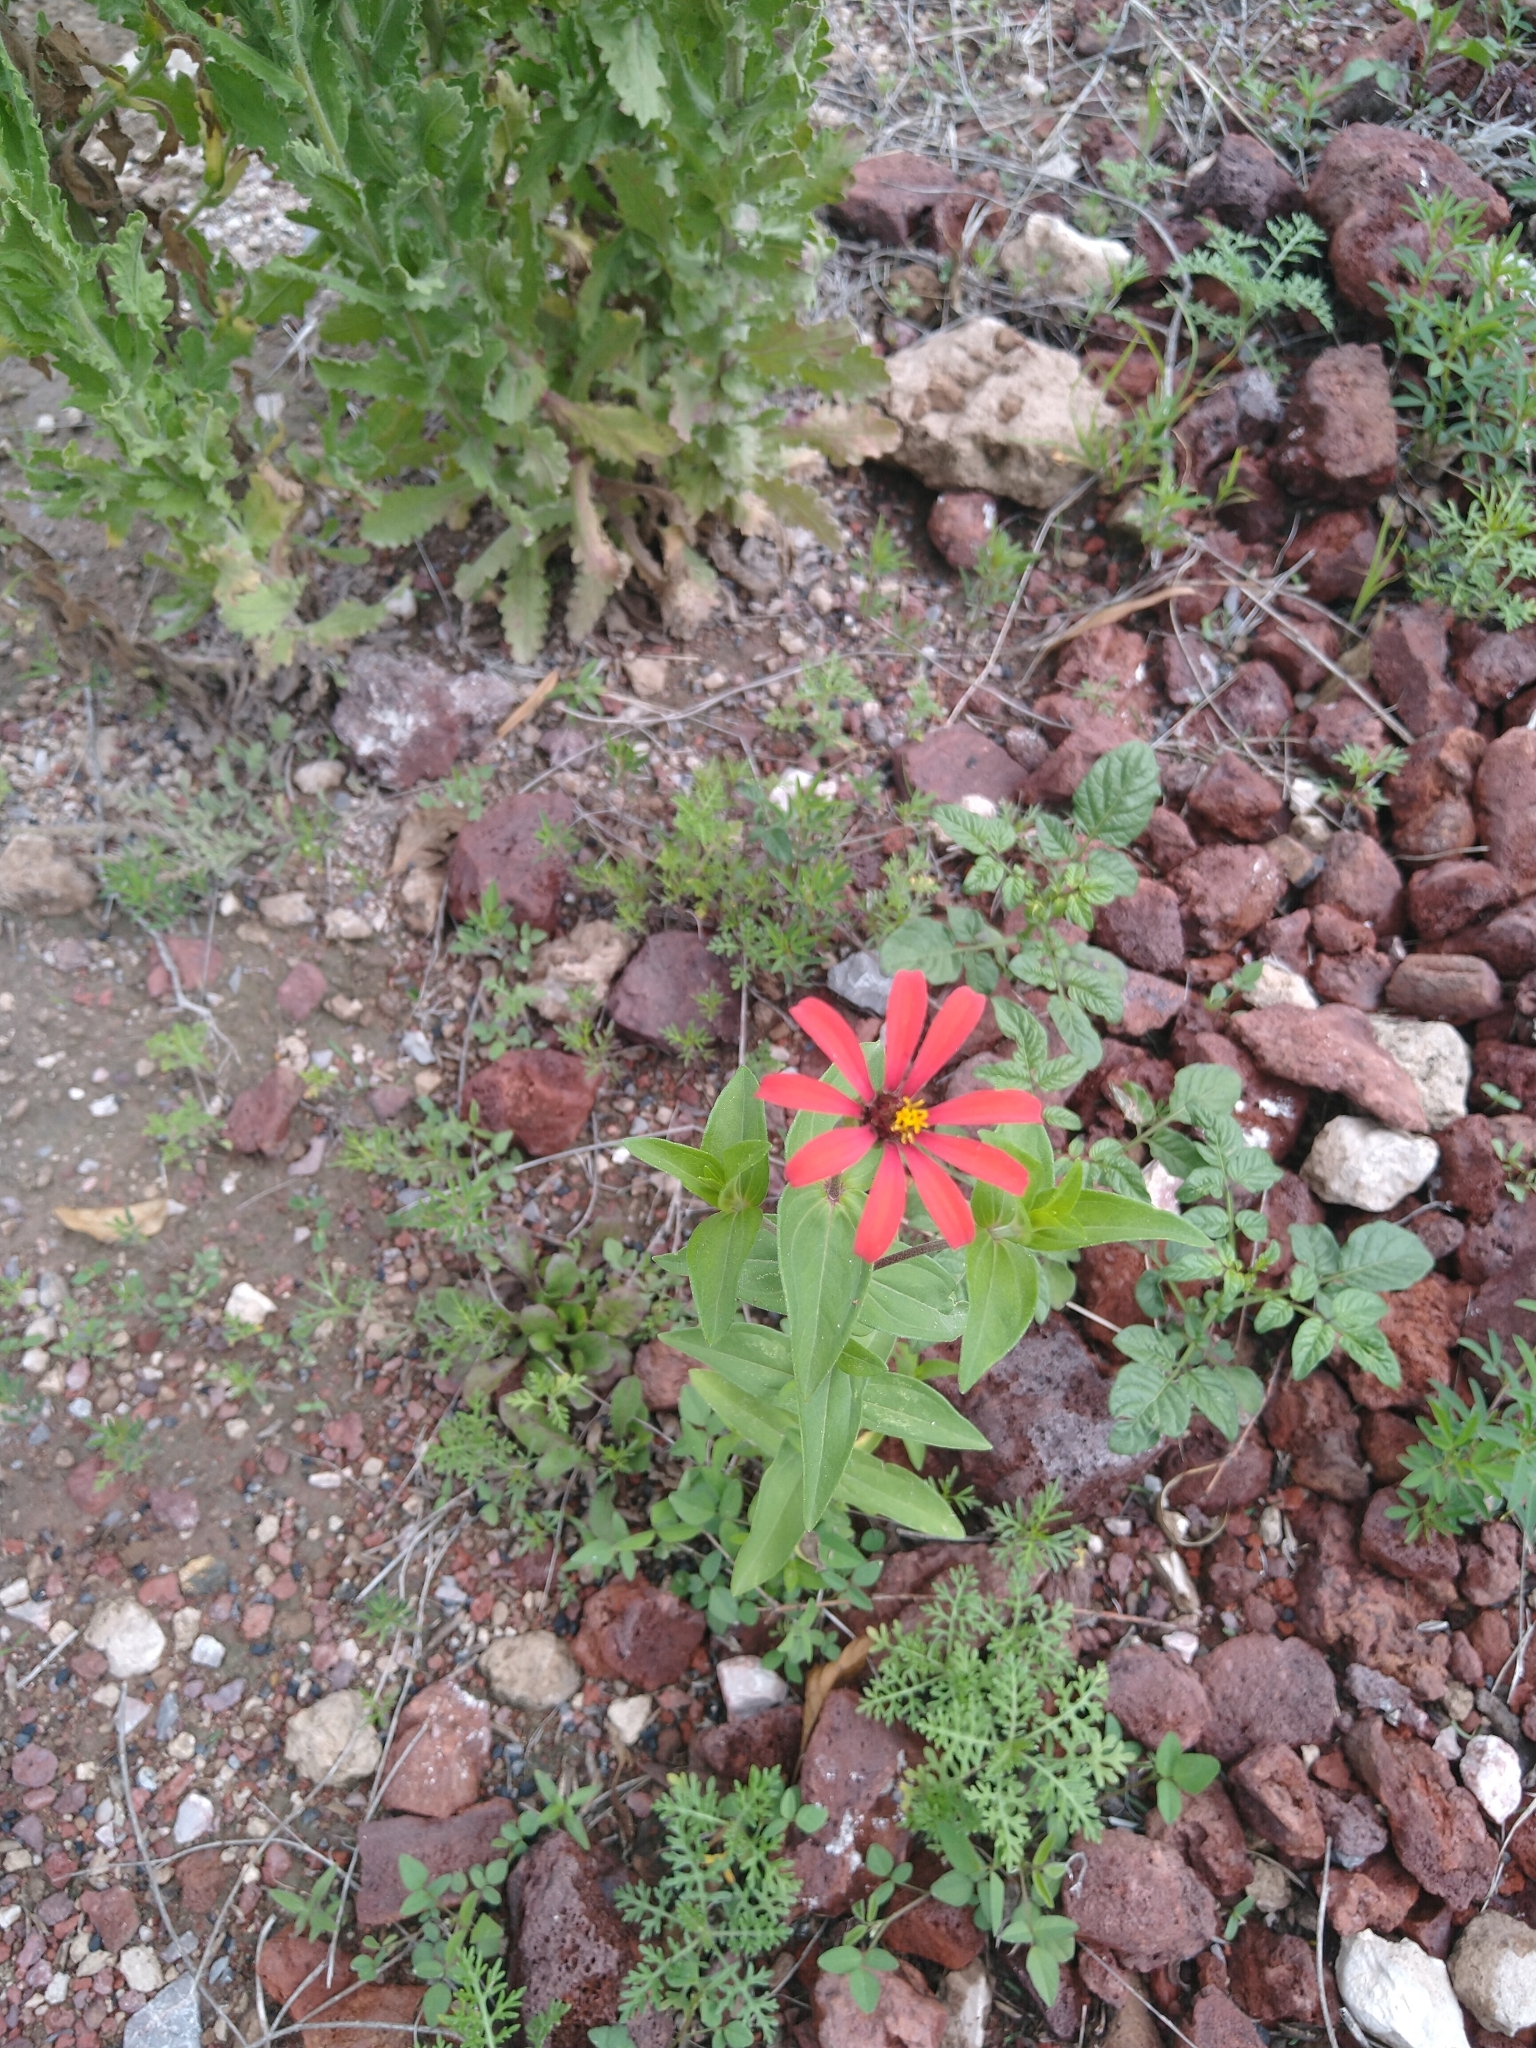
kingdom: Plantae
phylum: Tracheophyta
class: Magnoliopsida
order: Asterales
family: Asteraceae
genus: Zinnia
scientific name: Zinnia peruviana
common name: Peruvian zinnia
